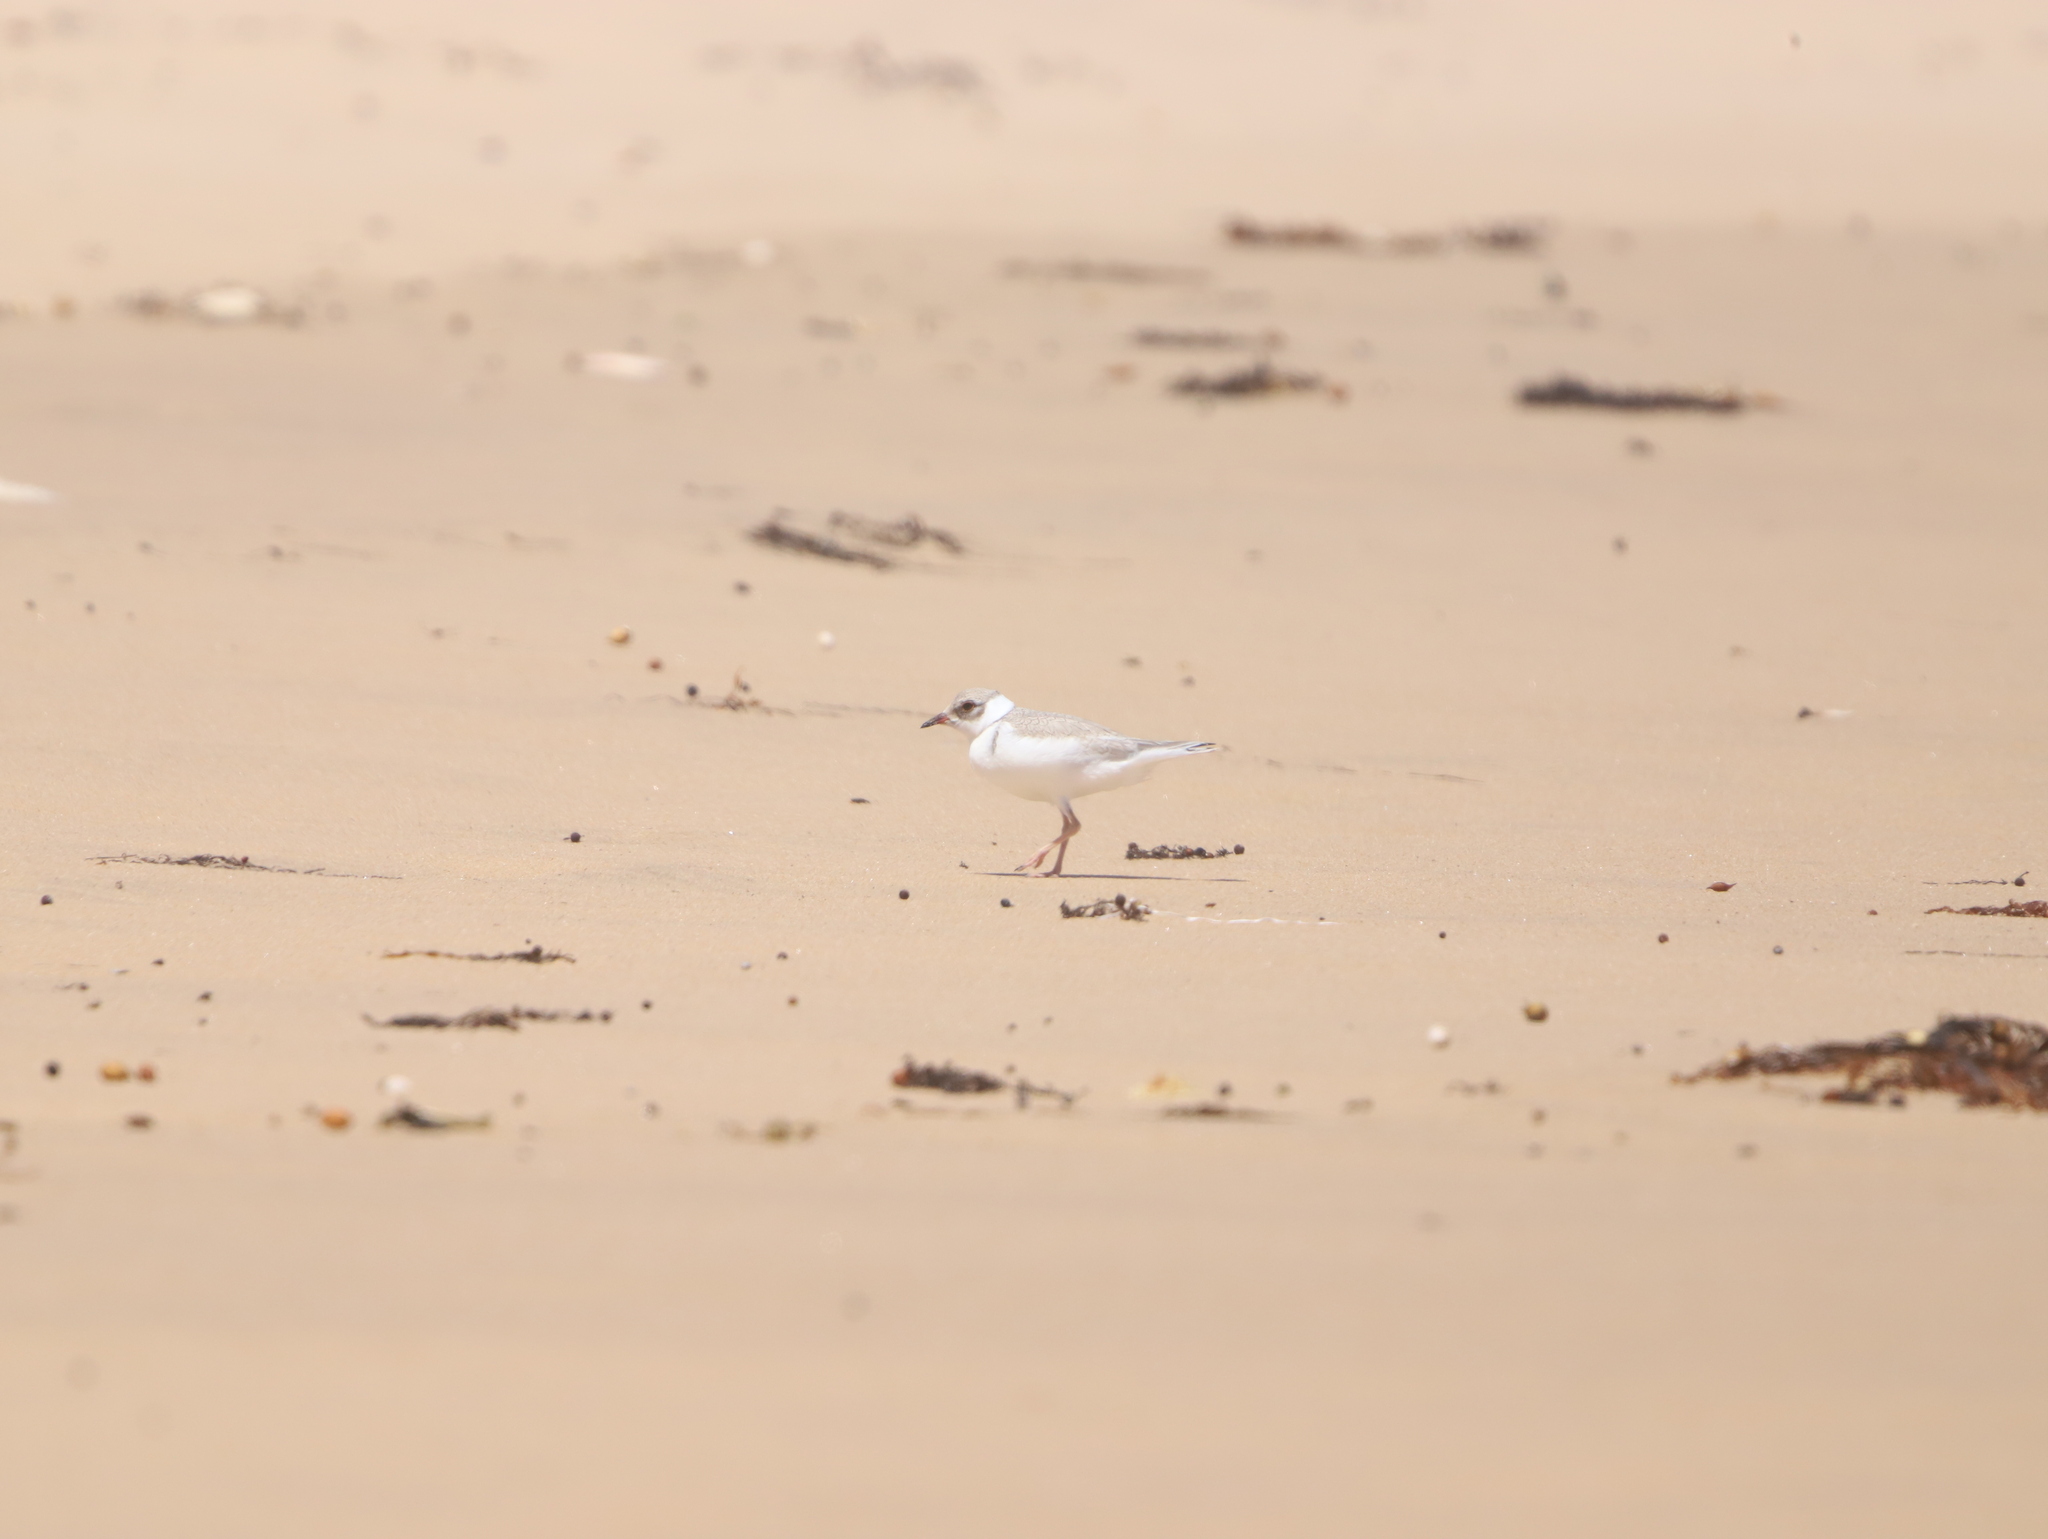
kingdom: Animalia
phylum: Chordata
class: Aves
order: Charadriiformes
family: Charadriidae
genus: Thinornis
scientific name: Thinornis cucullatus
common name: Hooded dotterel
